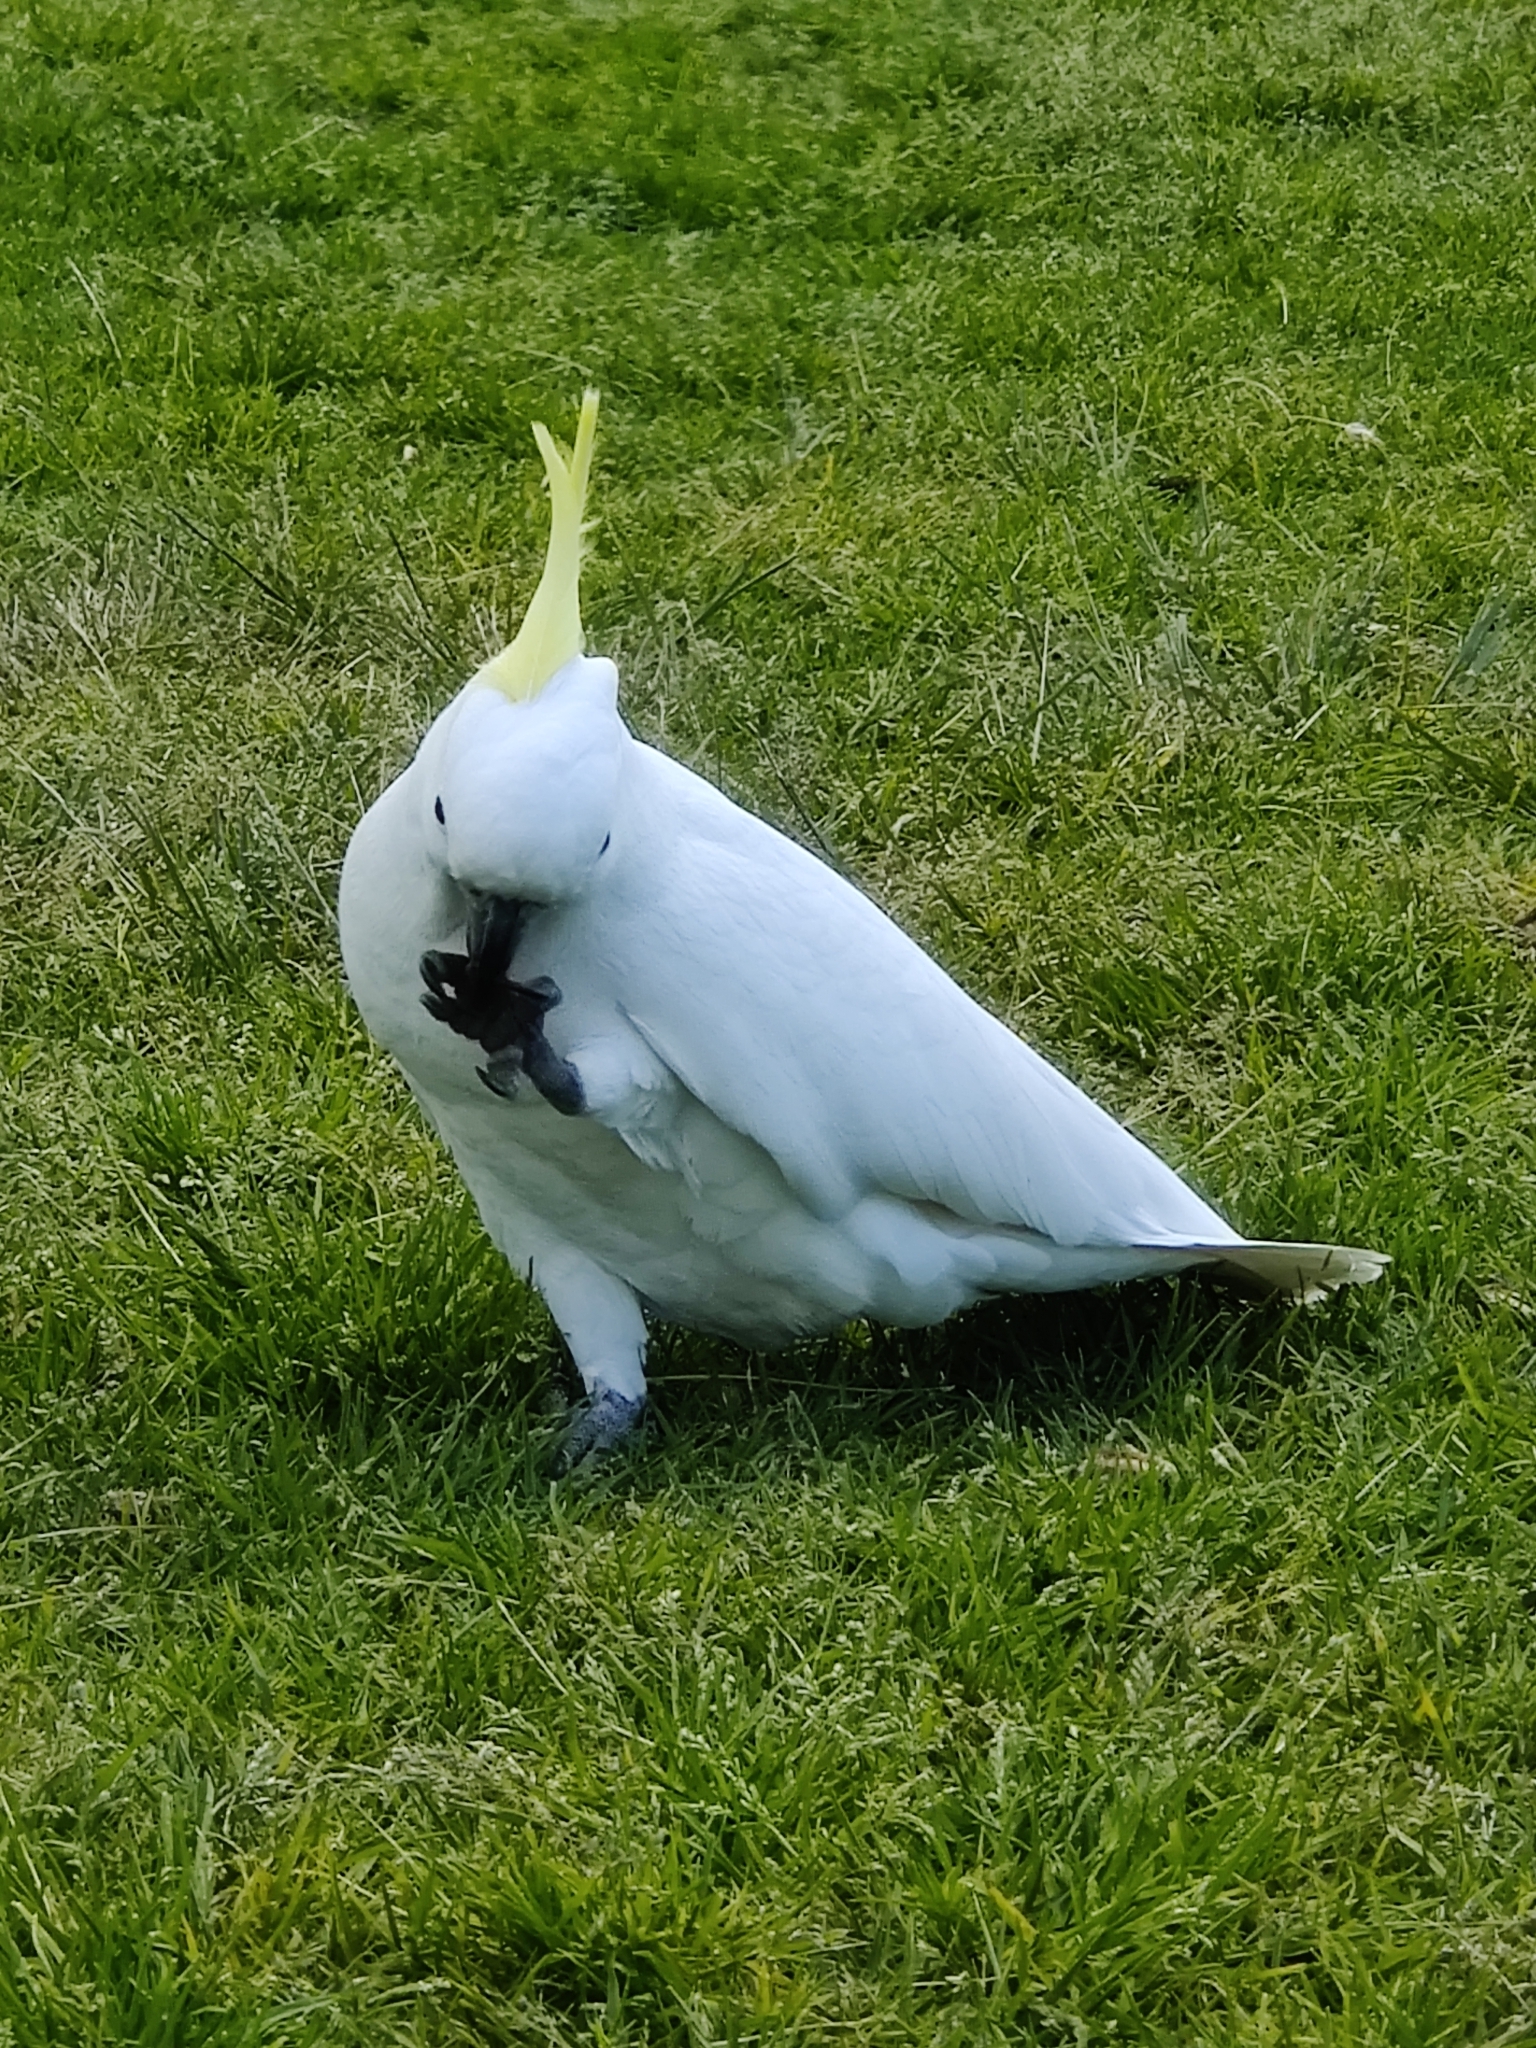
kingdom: Animalia
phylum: Chordata
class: Aves
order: Psittaciformes
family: Psittacidae
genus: Cacatua
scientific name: Cacatua galerita
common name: Sulphur-crested cockatoo
